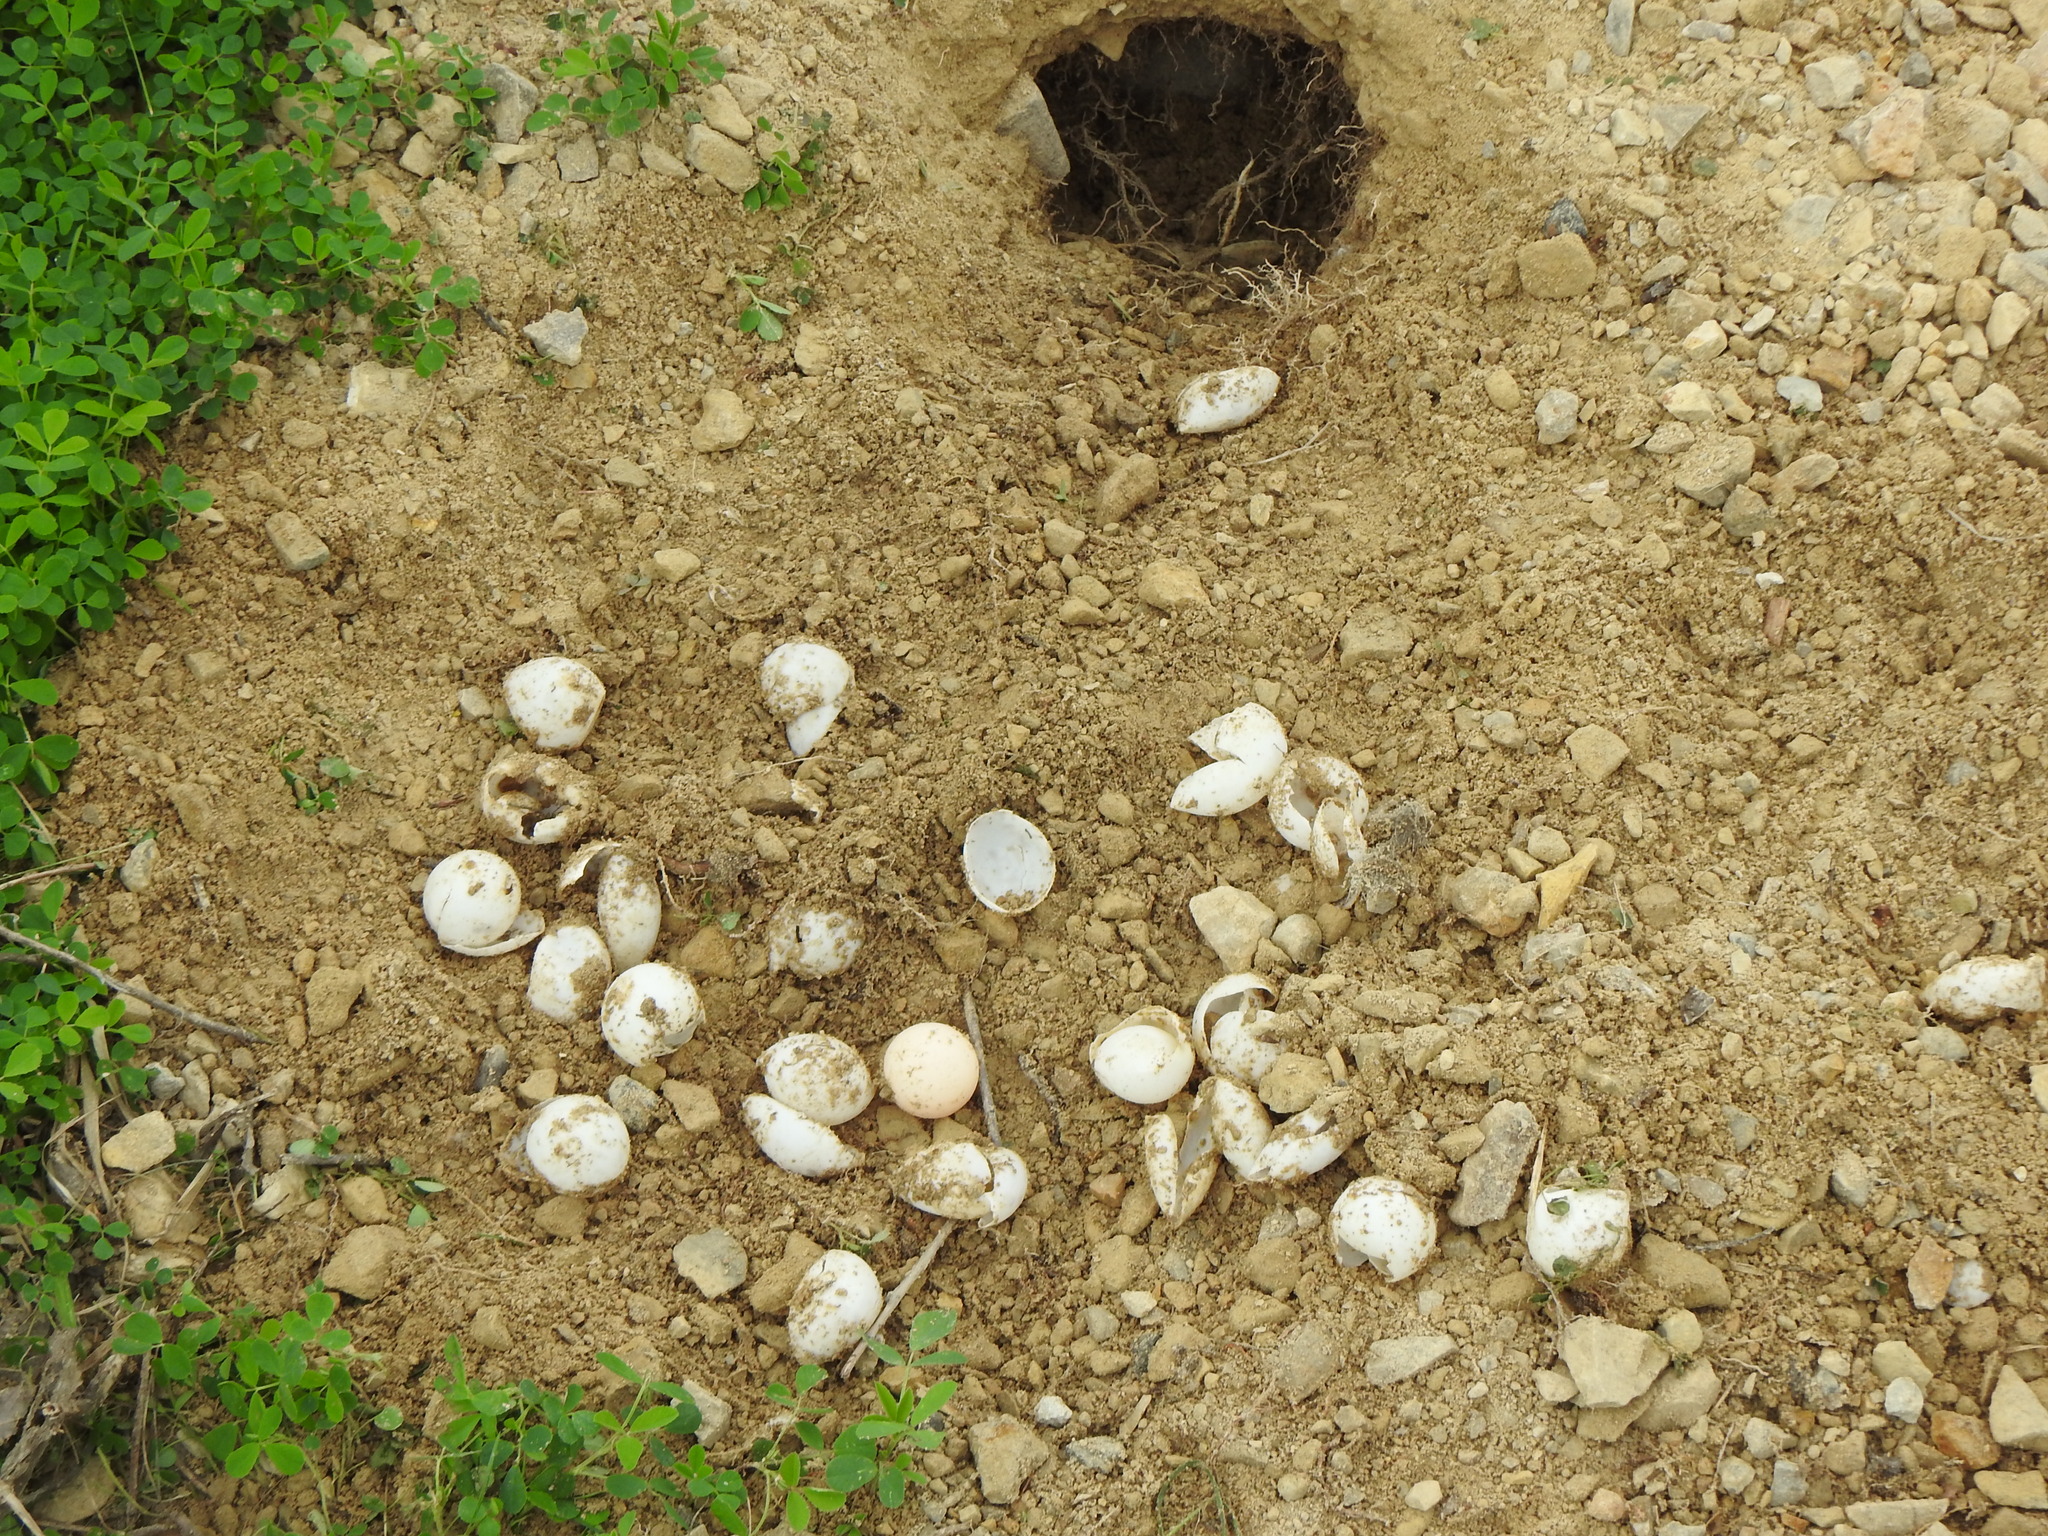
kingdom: Animalia
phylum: Chordata
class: Testudines
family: Chelydridae
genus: Chelydra
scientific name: Chelydra serpentina
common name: Common snapping turtle
